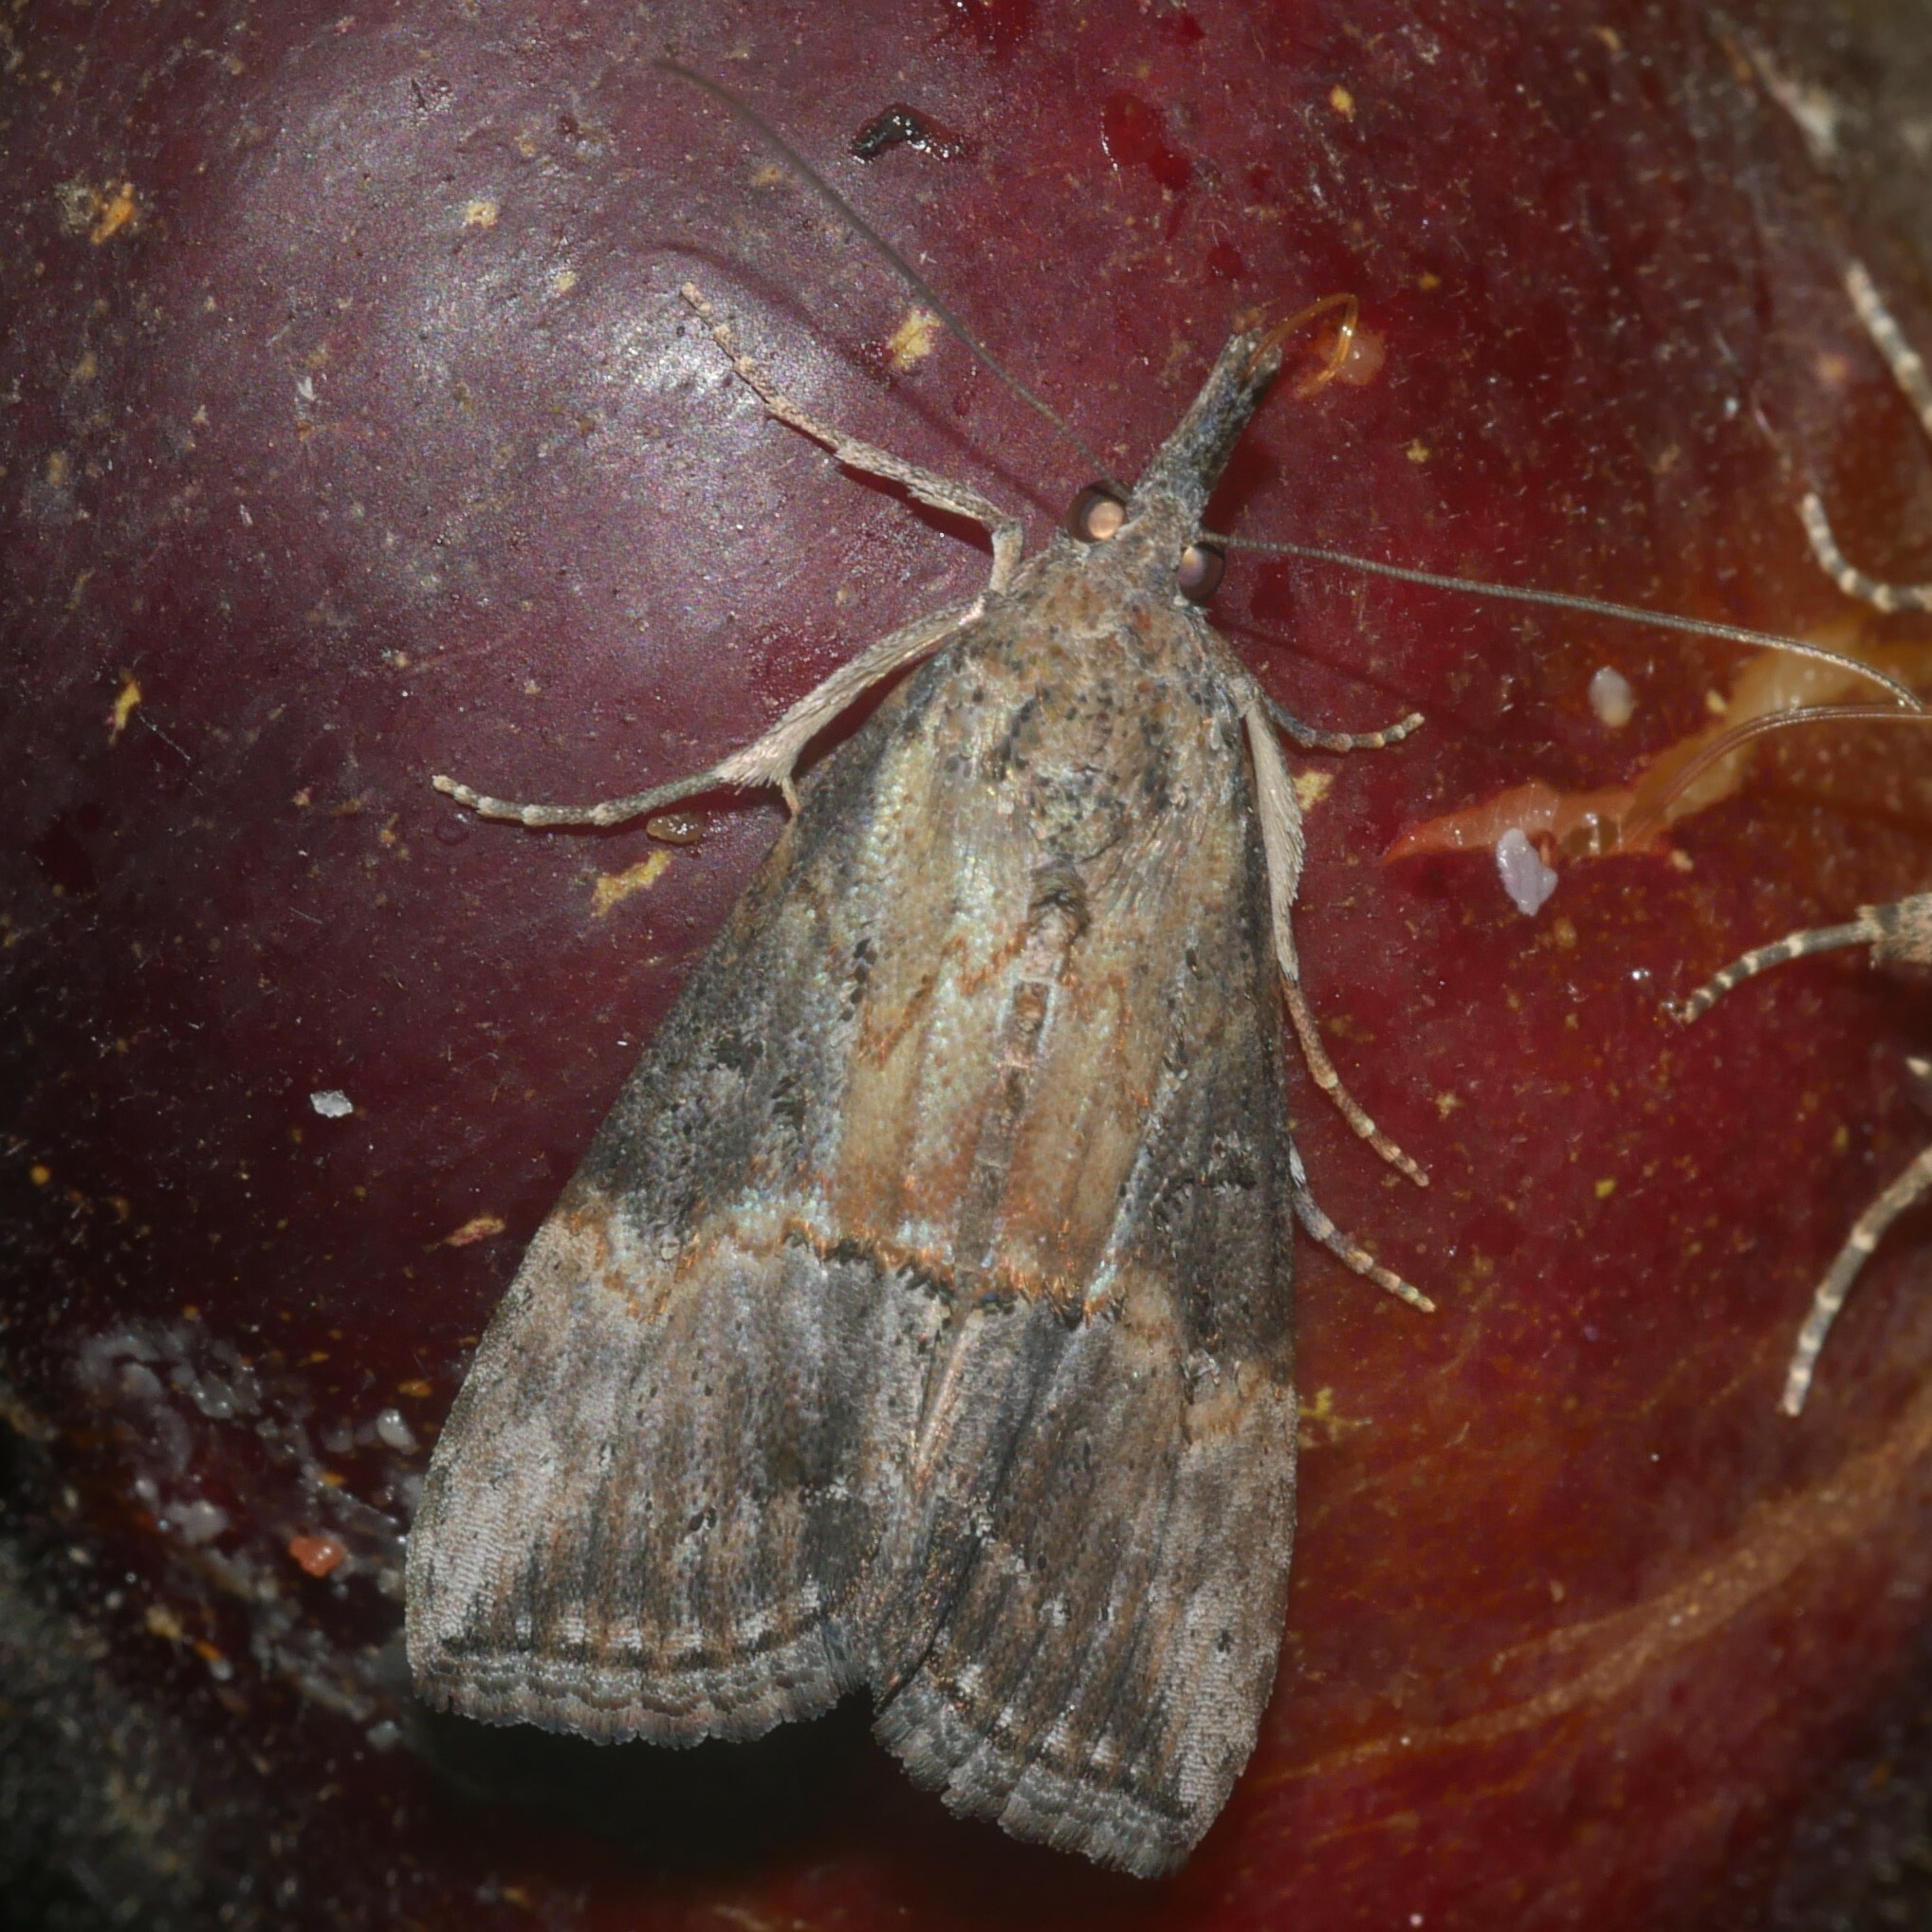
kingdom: Animalia
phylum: Arthropoda
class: Insecta
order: Lepidoptera
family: Erebidae
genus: Hypena
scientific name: Hypena scabra
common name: Green cloverworm
